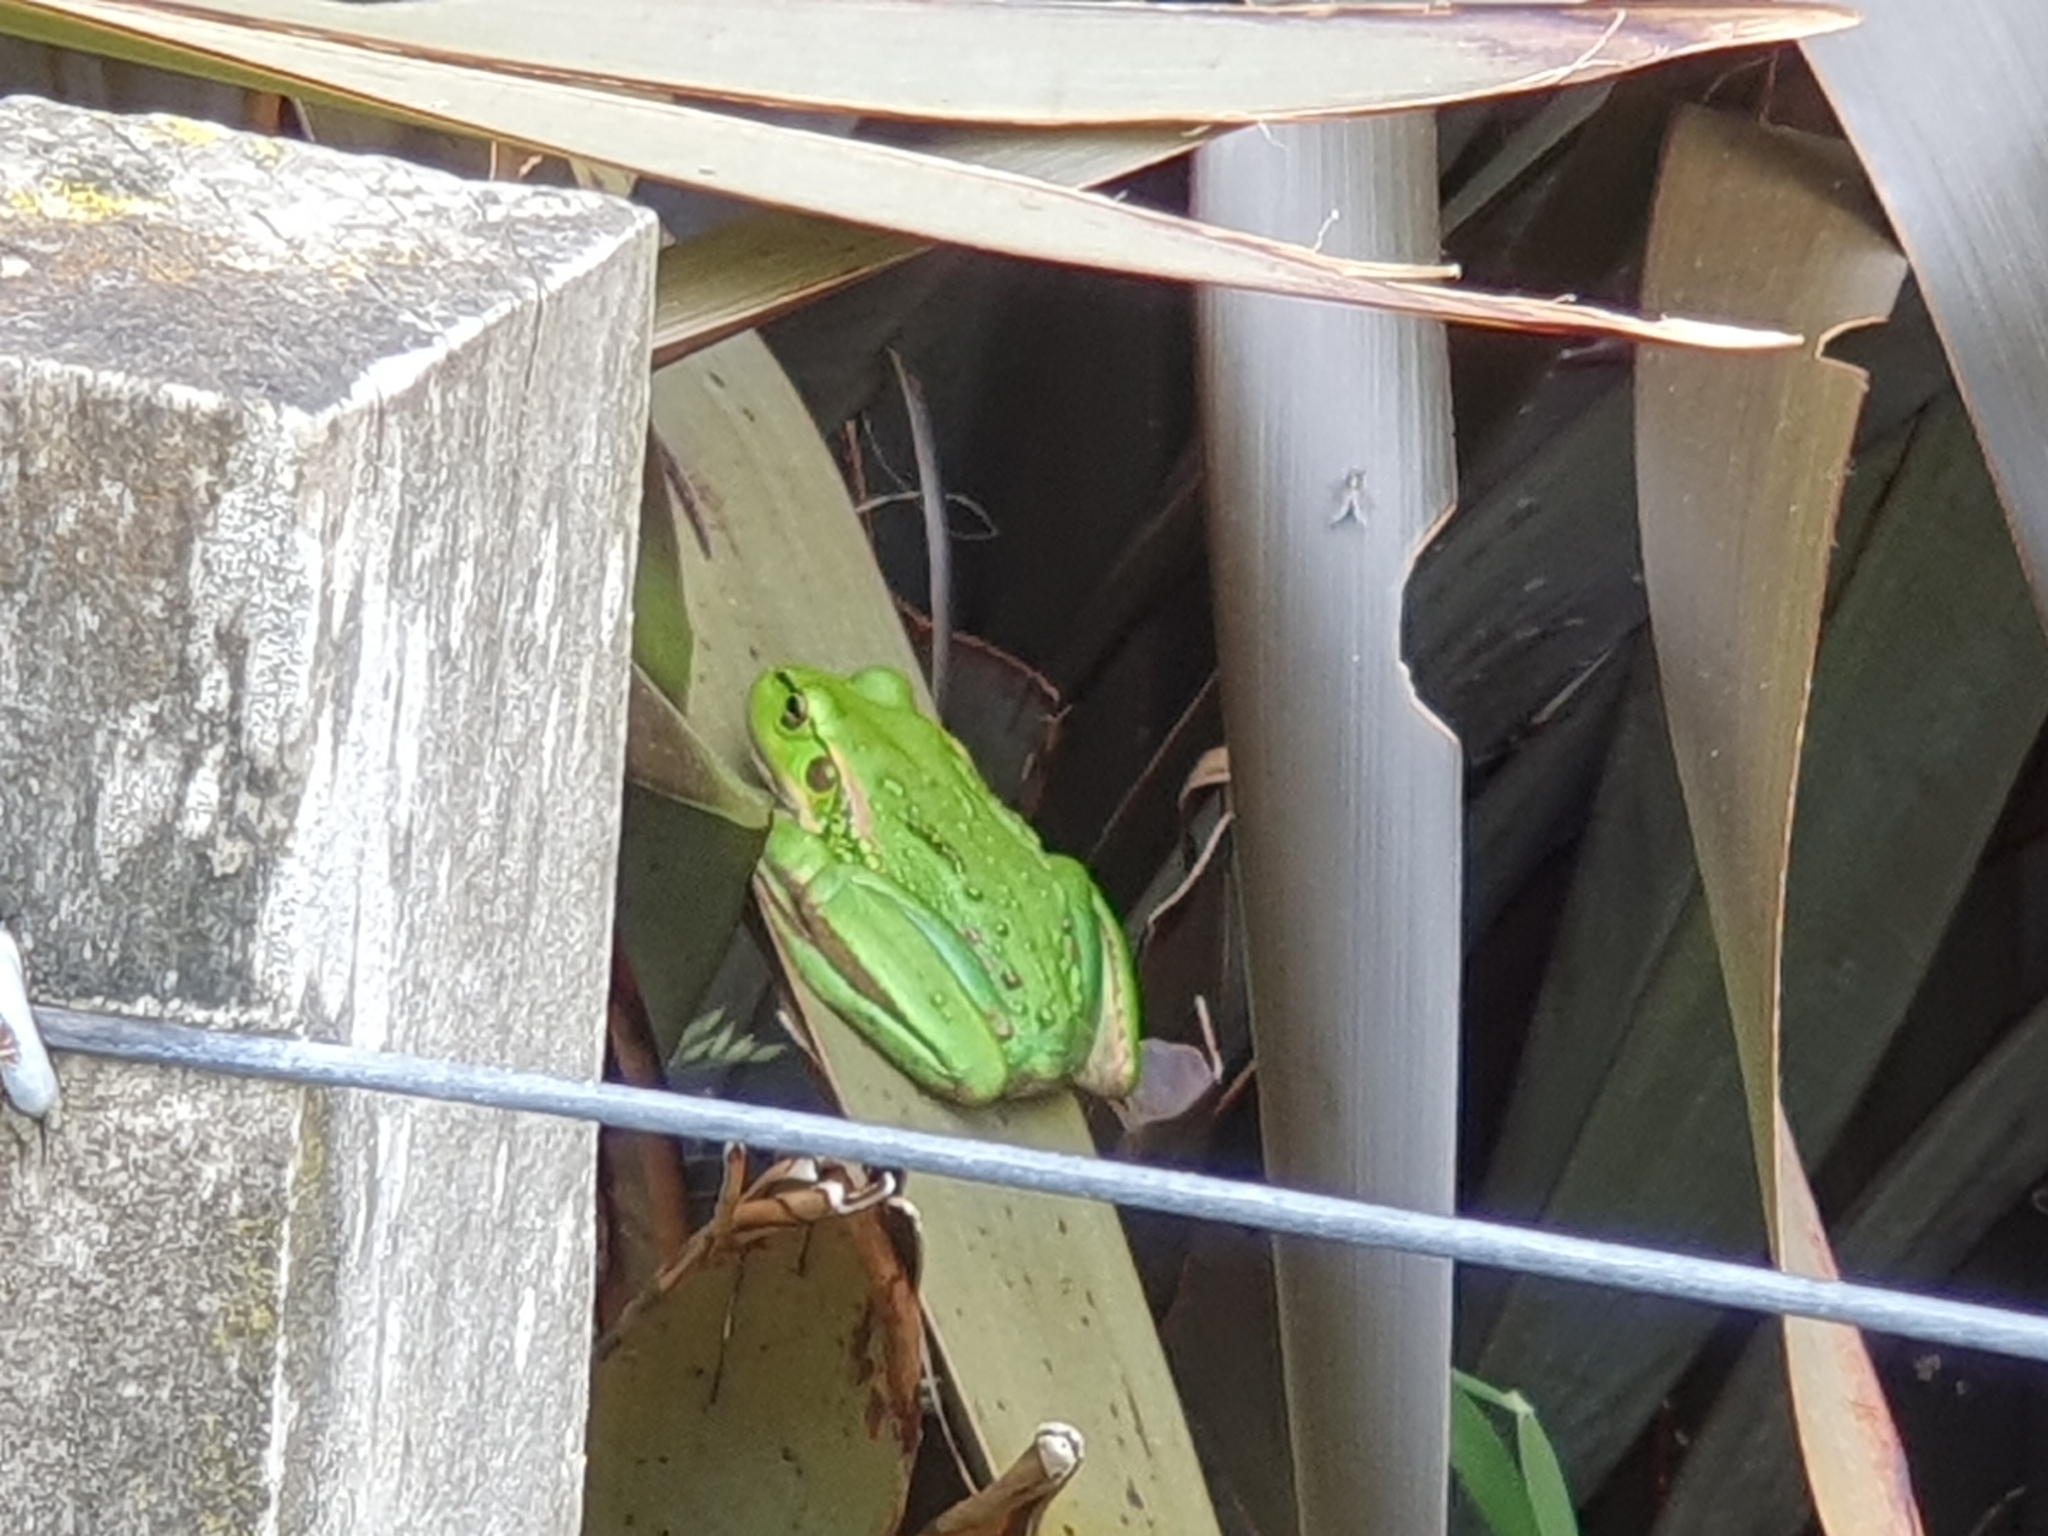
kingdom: Animalia
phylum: Chordata
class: Amphibia
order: Anura
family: Pelodryadidae
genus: Ranoidea
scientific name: Ranoidea raniformis
